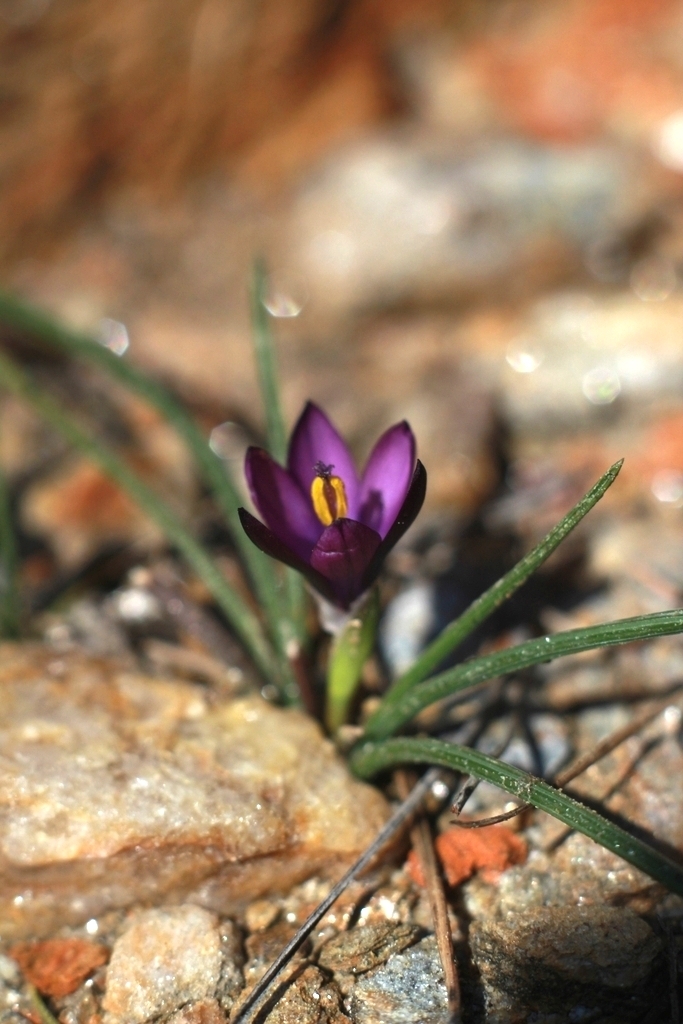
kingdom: Plantae
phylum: Tracheophyta
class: Liliopsida
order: Asparagales
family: Iridaceae
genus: Romulea
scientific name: Romulea florentii
